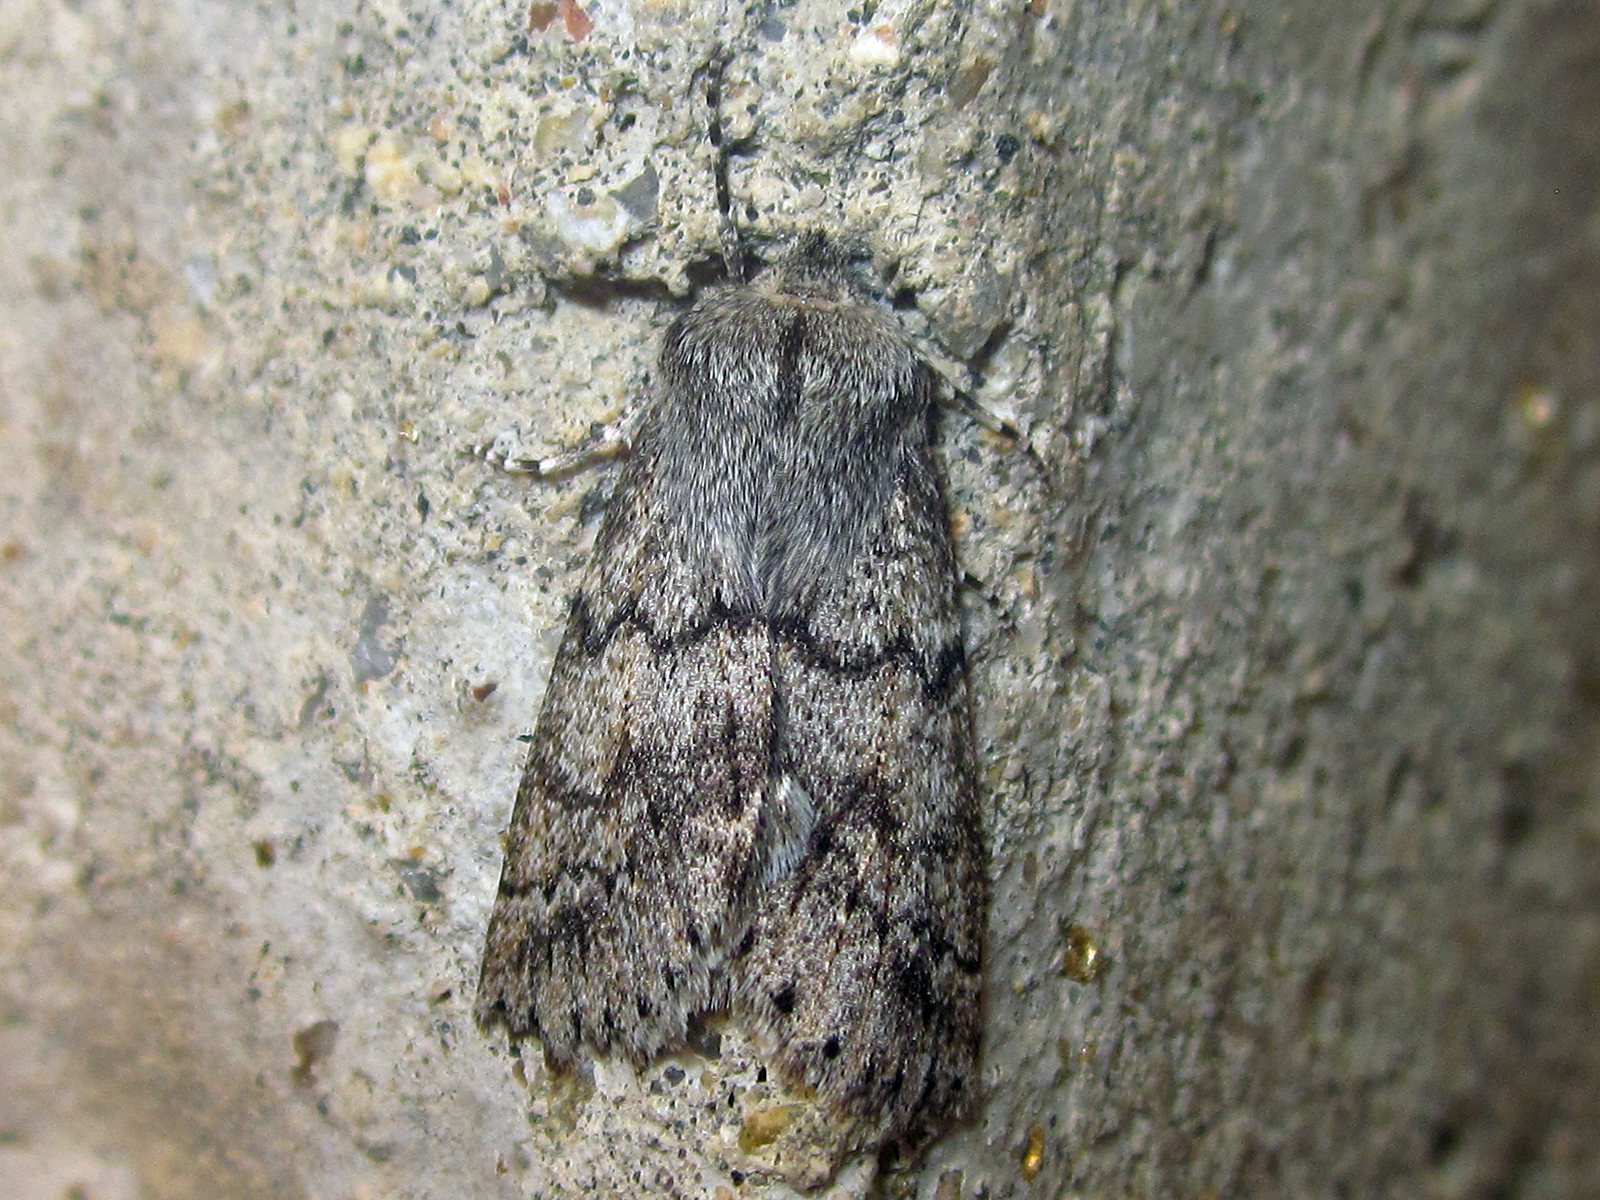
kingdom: Animalia
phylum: Arthropoda
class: Insecta
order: Lepidoptera
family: Geometridae
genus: Mallomus
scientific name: Mallomus mutabilis
